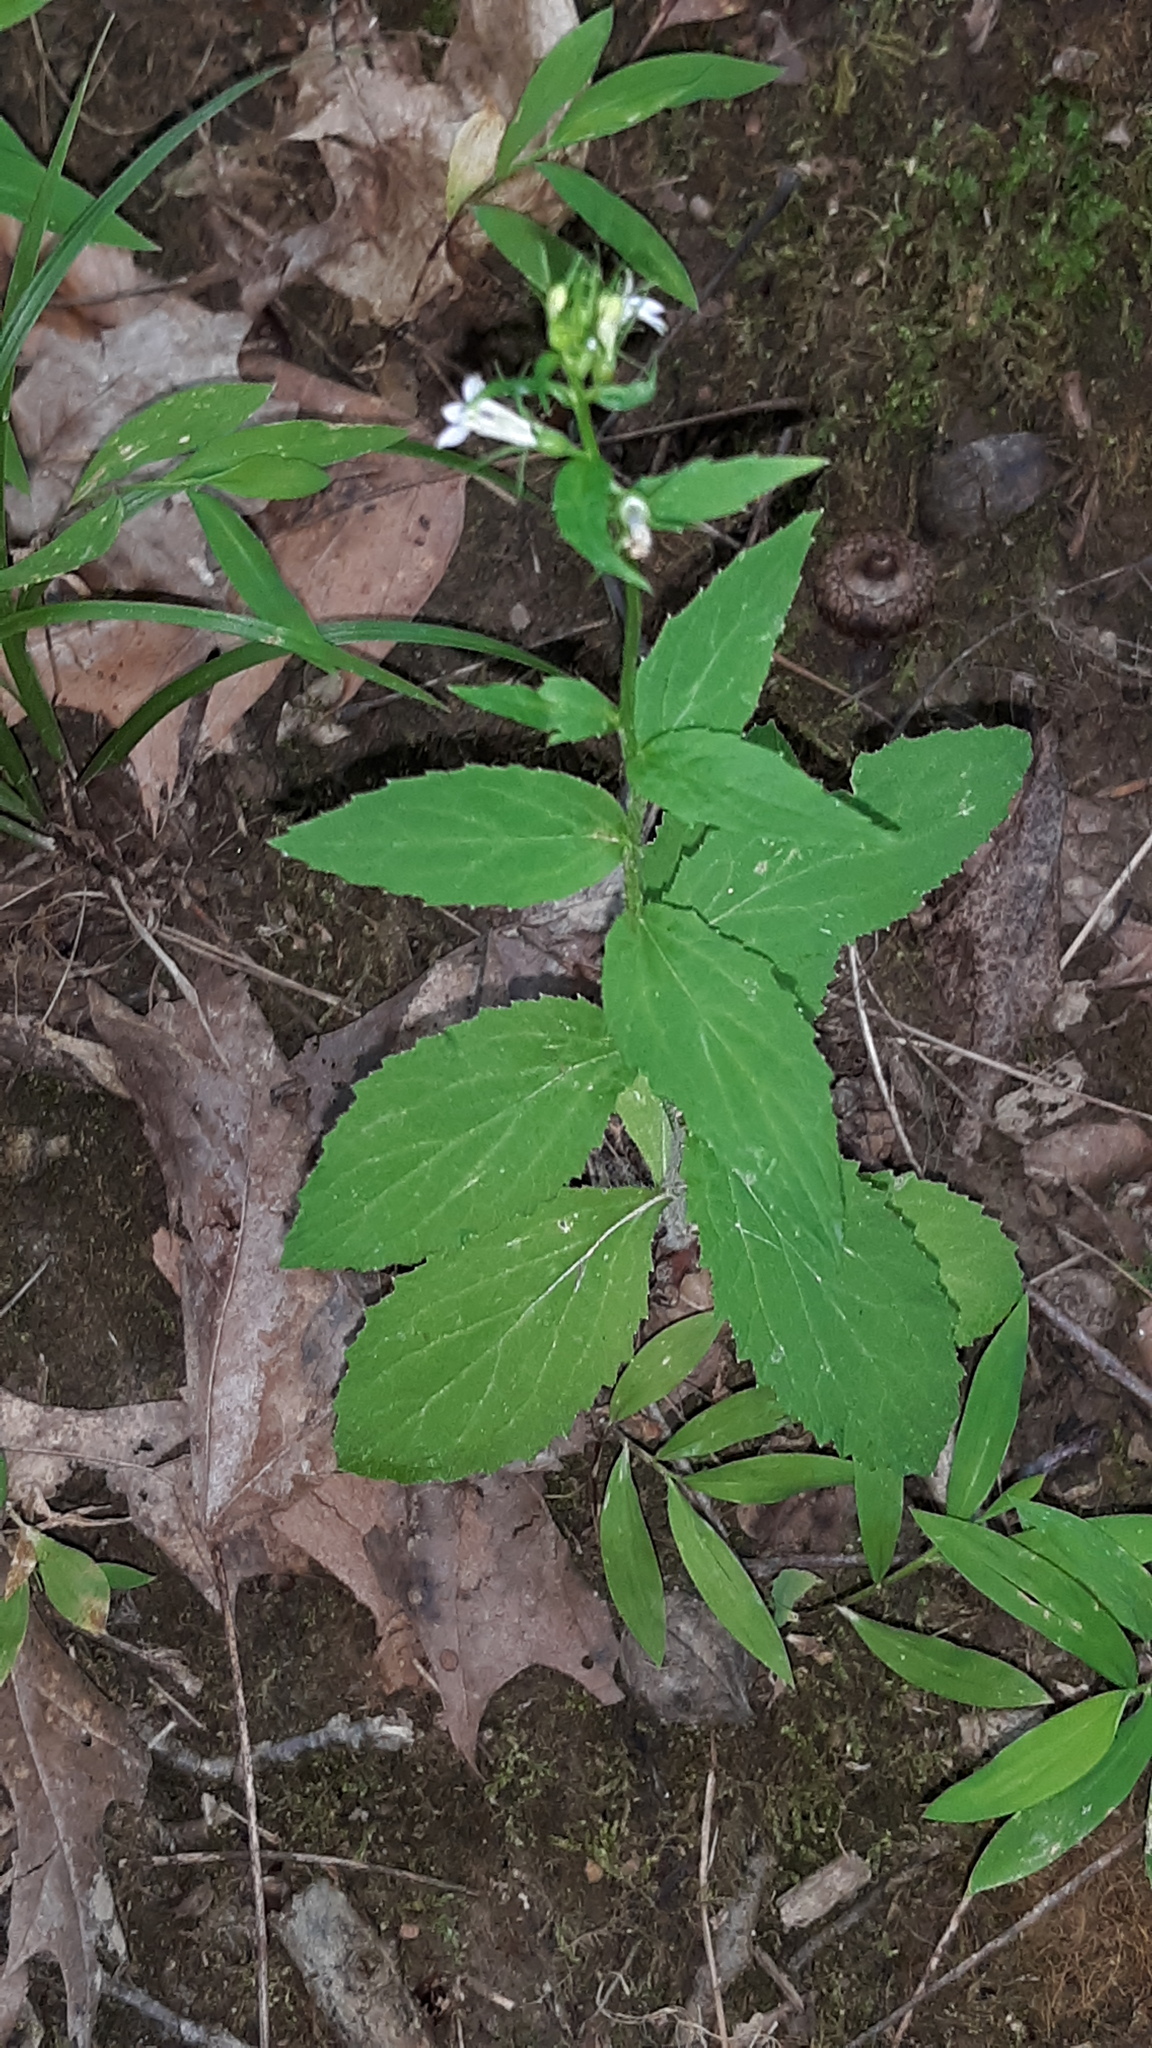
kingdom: Plantae
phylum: Tracheophyta
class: Magnoliopsida
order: Asterales
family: Campanulaceae
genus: Lobelia
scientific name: Lobelia inflata
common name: Indian tobacco
